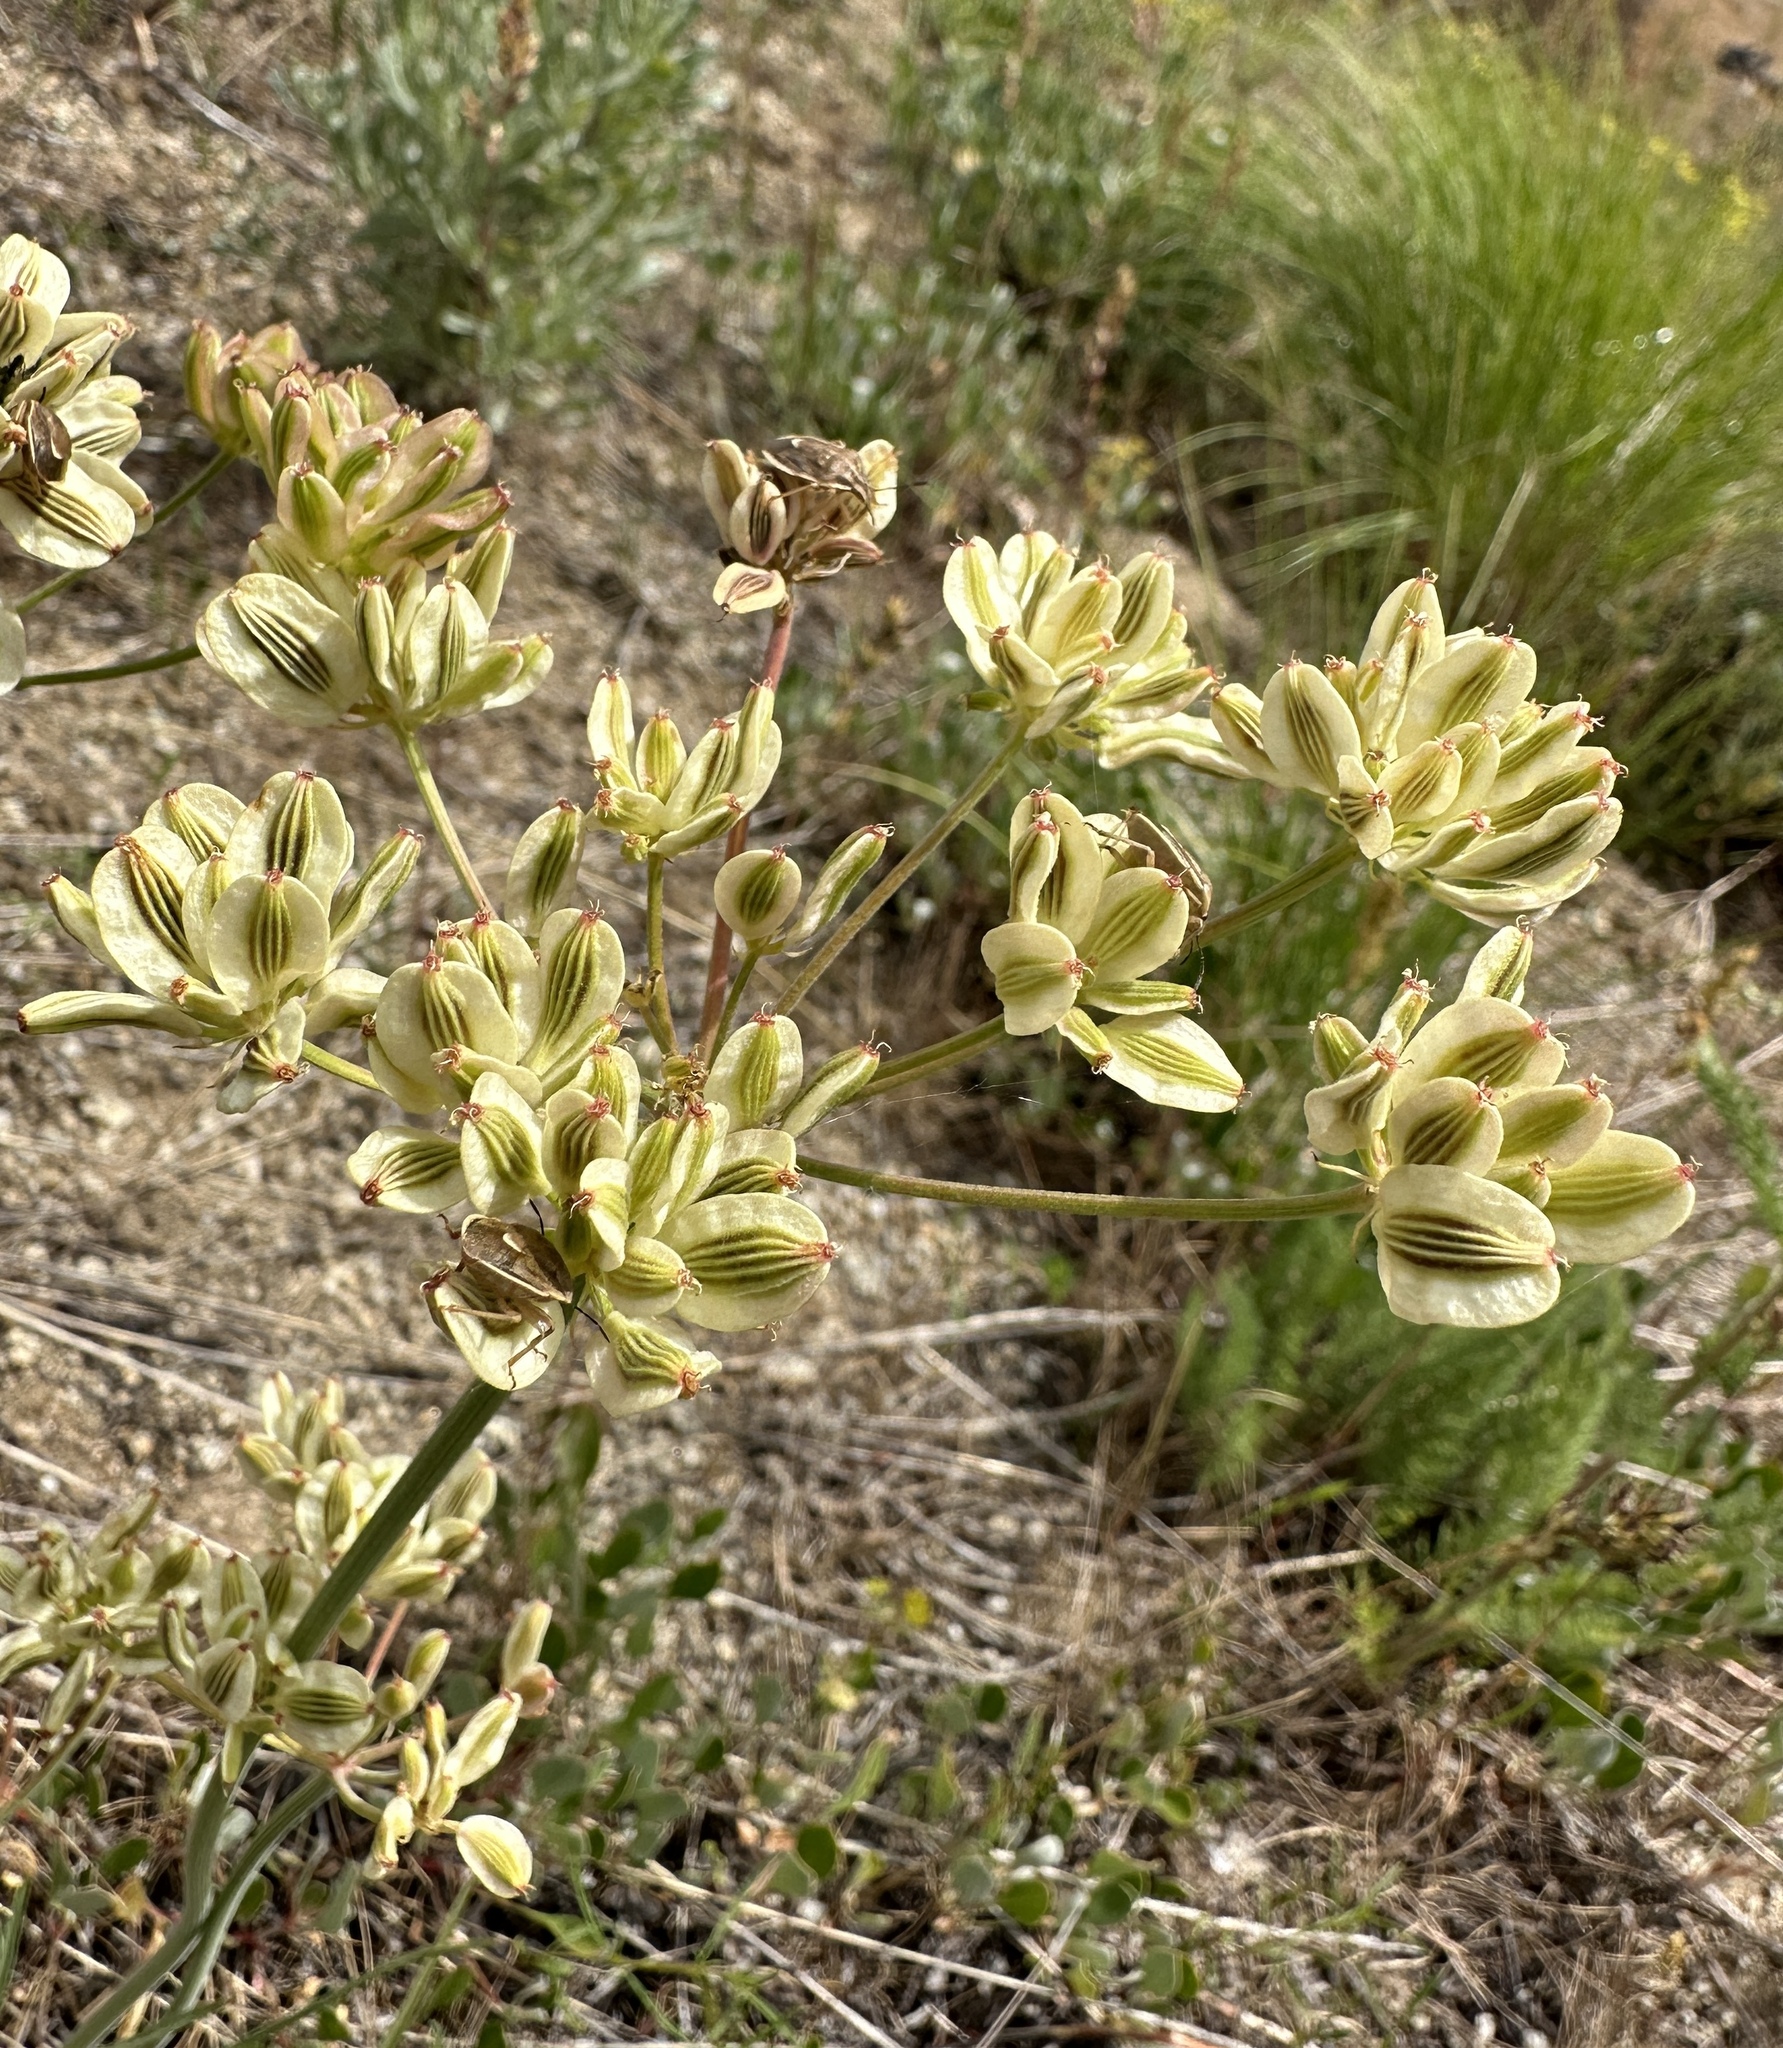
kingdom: Plantae
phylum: Tracheophyta
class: Magnoliopsida
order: Apiales
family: Apiaceae
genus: Lomatium
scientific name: Lomatium simplex
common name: Great basin biscuitroot
